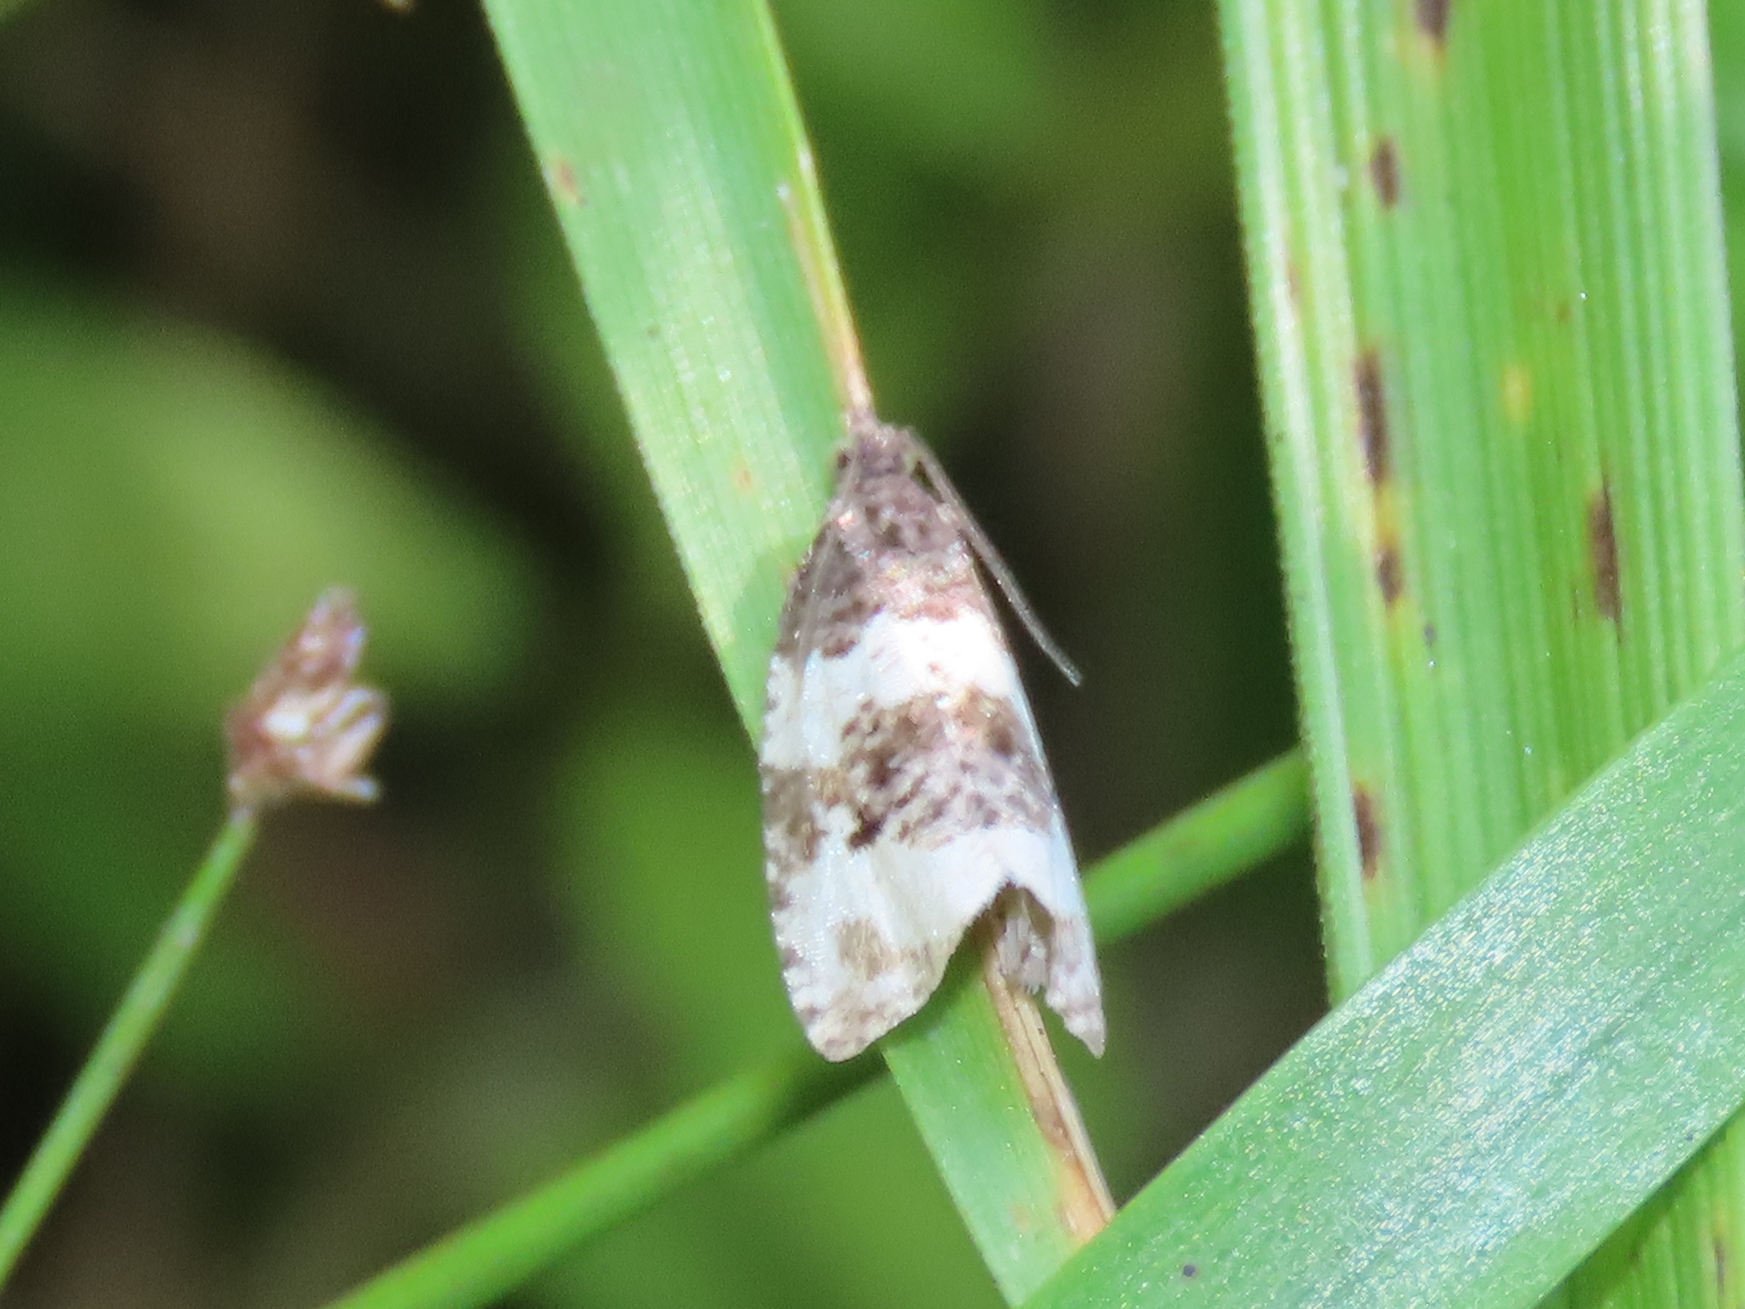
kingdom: Animalia
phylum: Arthropoda
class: Insecta
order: Lepidoptera
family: Tortricidae
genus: Olethreutes
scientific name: Olethreutes bipartitana
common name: Divided olethreutes moth
